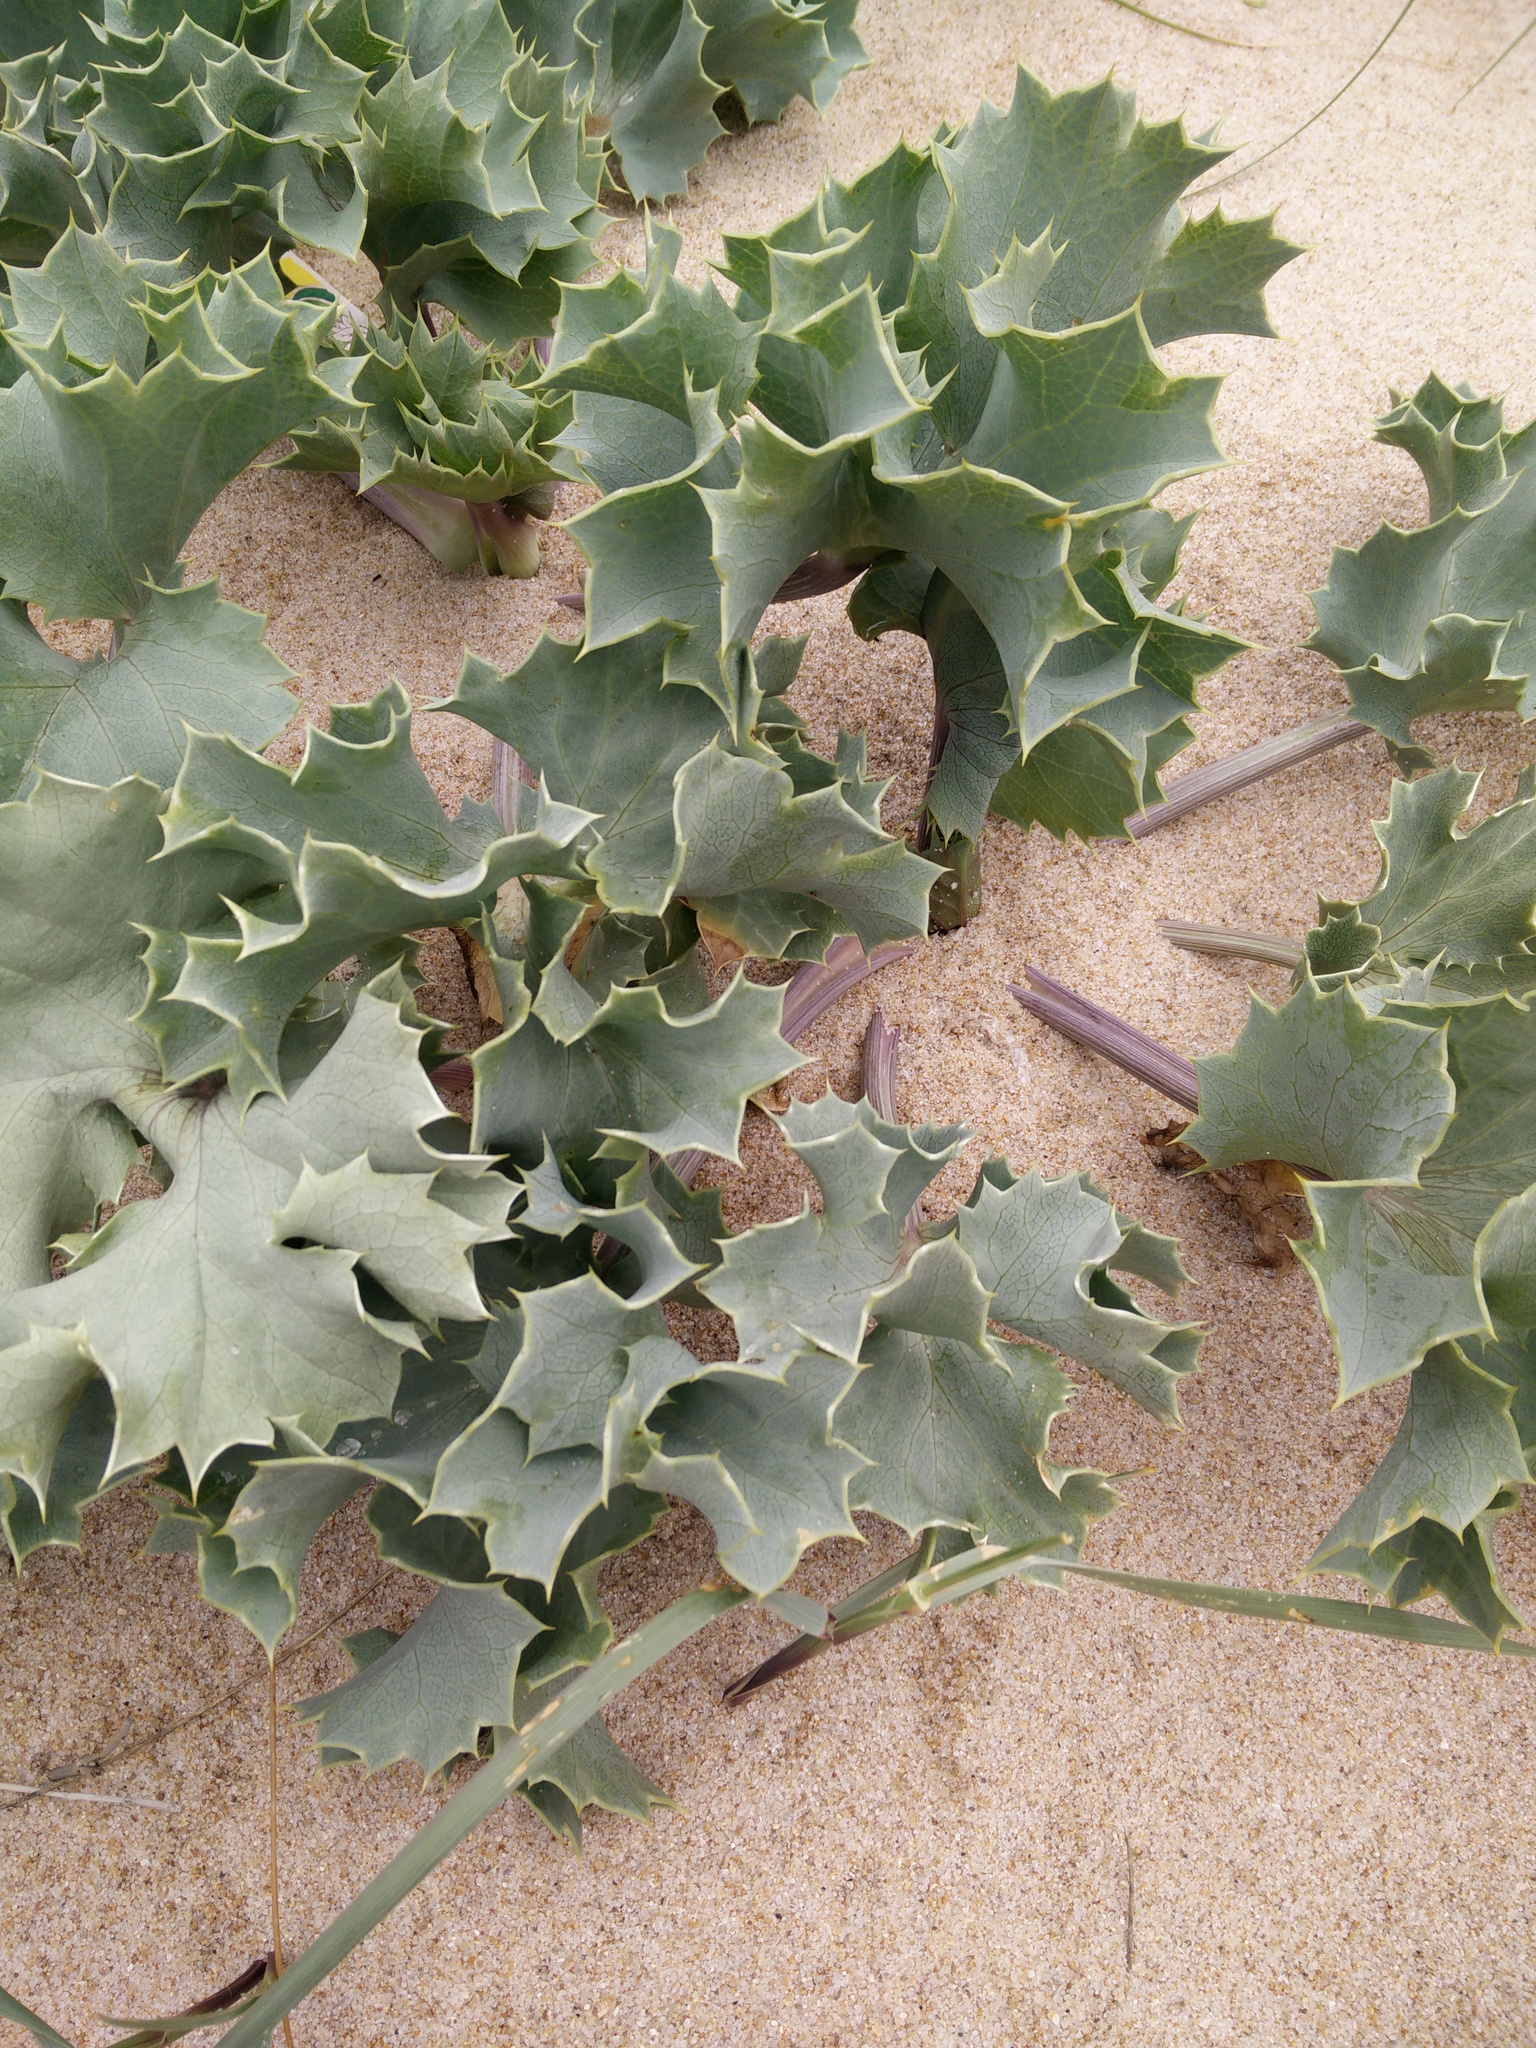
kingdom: Plantae
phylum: Tracheophyta
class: Magnoliopsida
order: Apiales
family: Apiaceae
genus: Eryngium
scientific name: Eryngium maritimum
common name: Sea-holly
